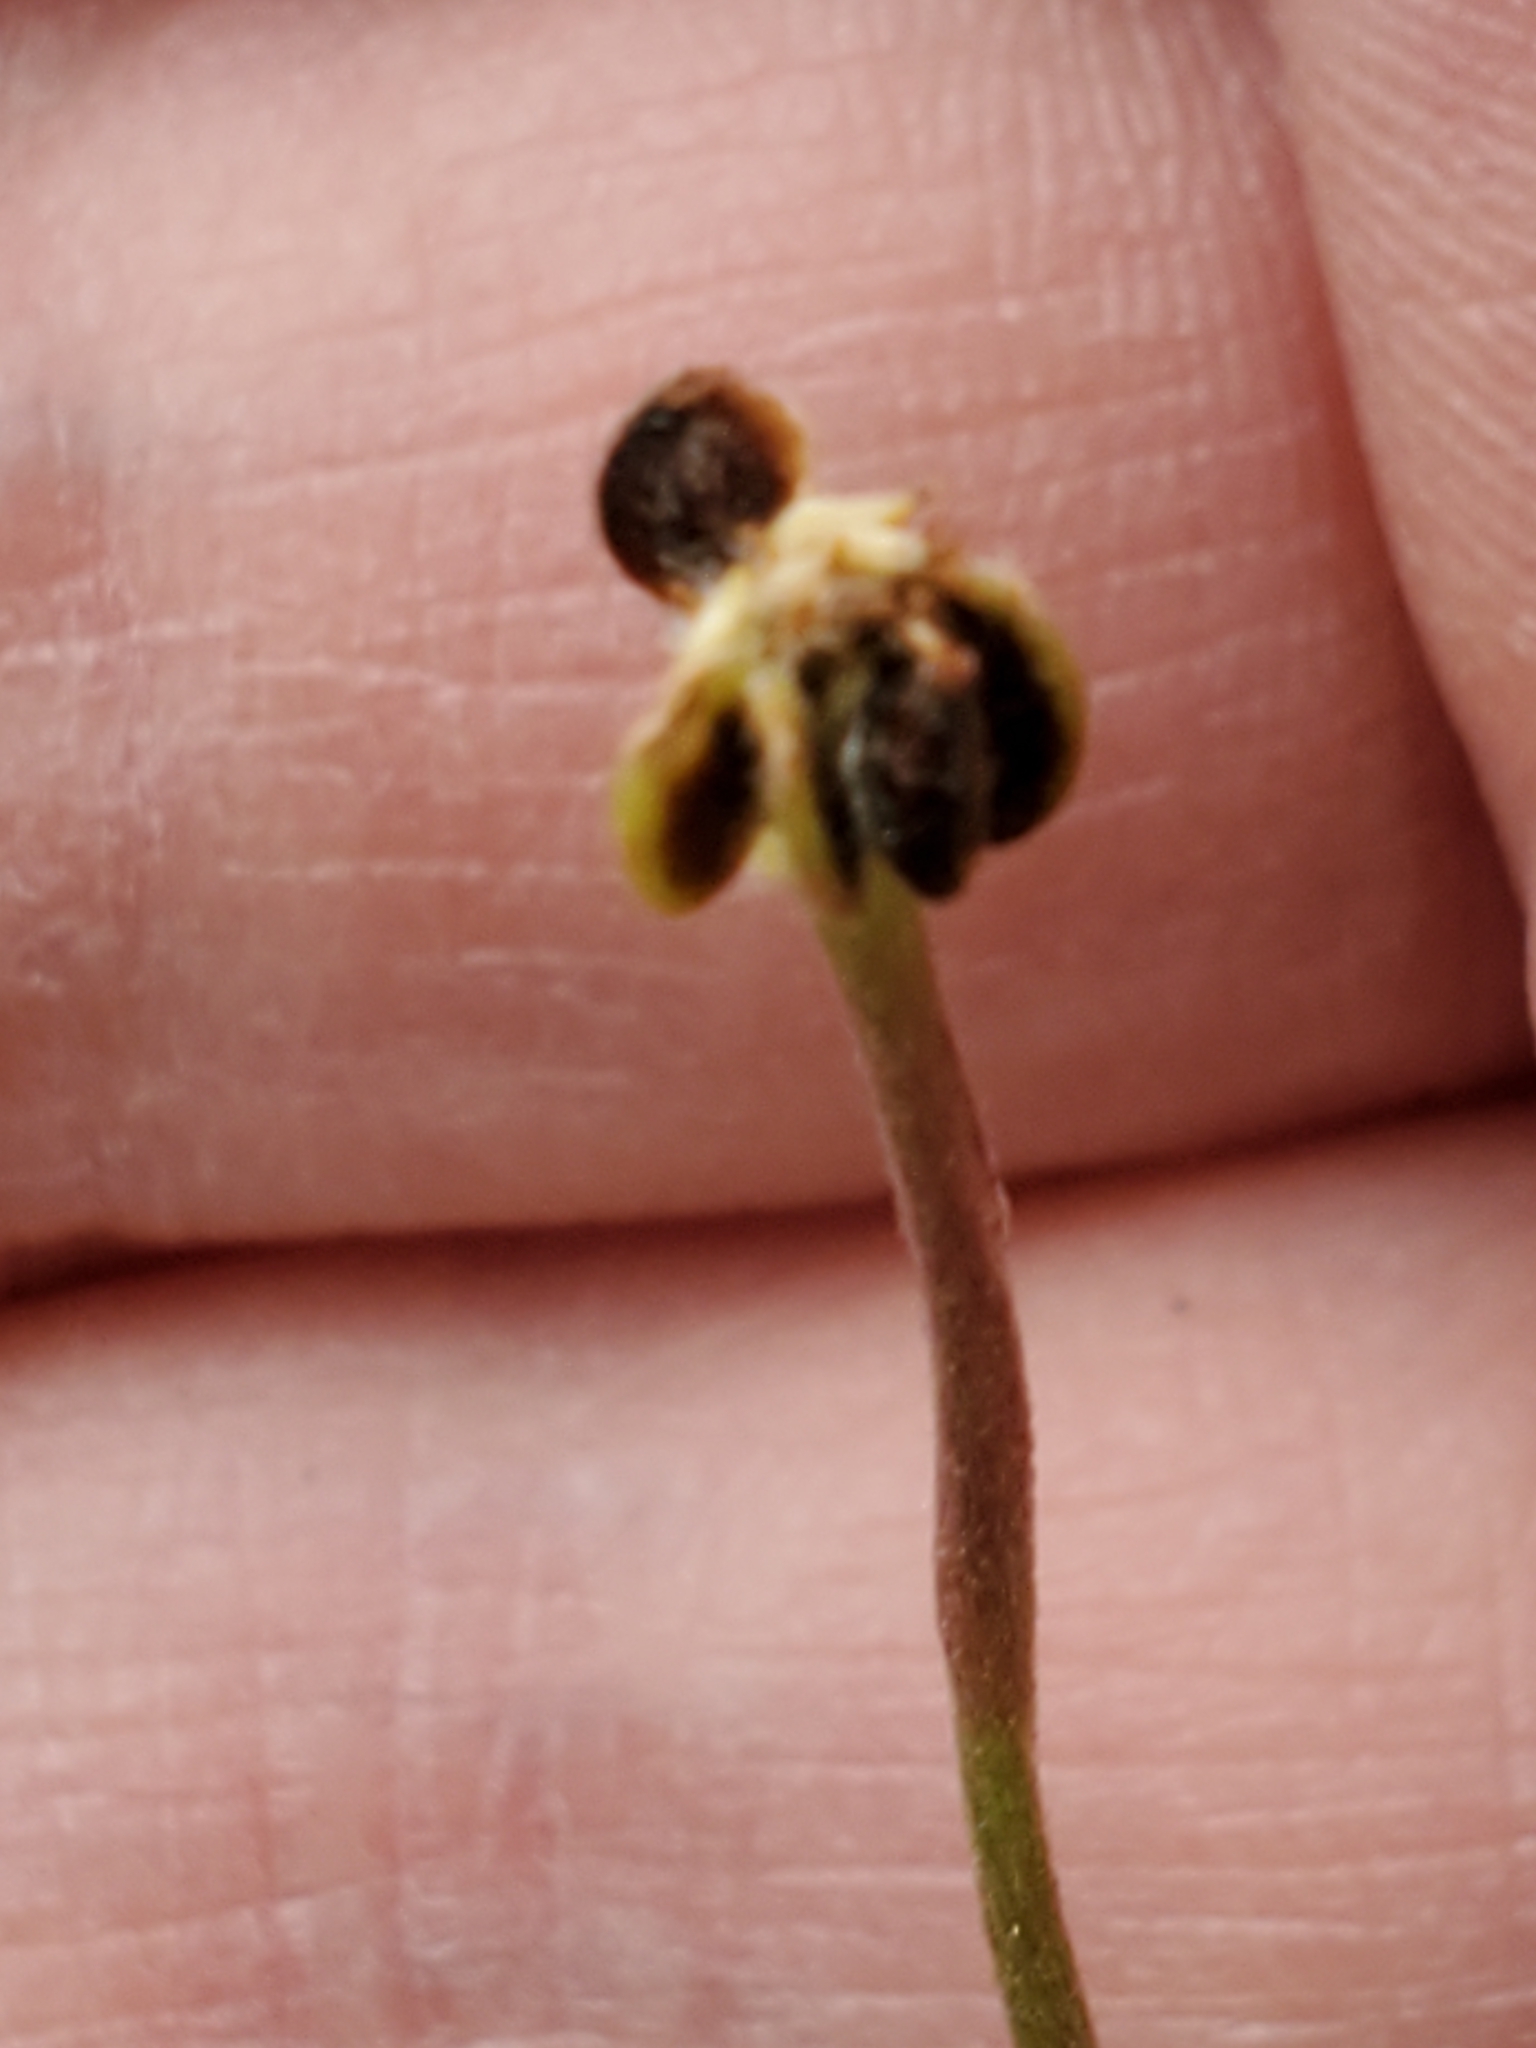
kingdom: Plantae
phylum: Tracheophyta
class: Magnoliopsida
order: Ranunculales
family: Ranunculaceae
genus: Anemone
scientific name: Anemone edwardsiana
